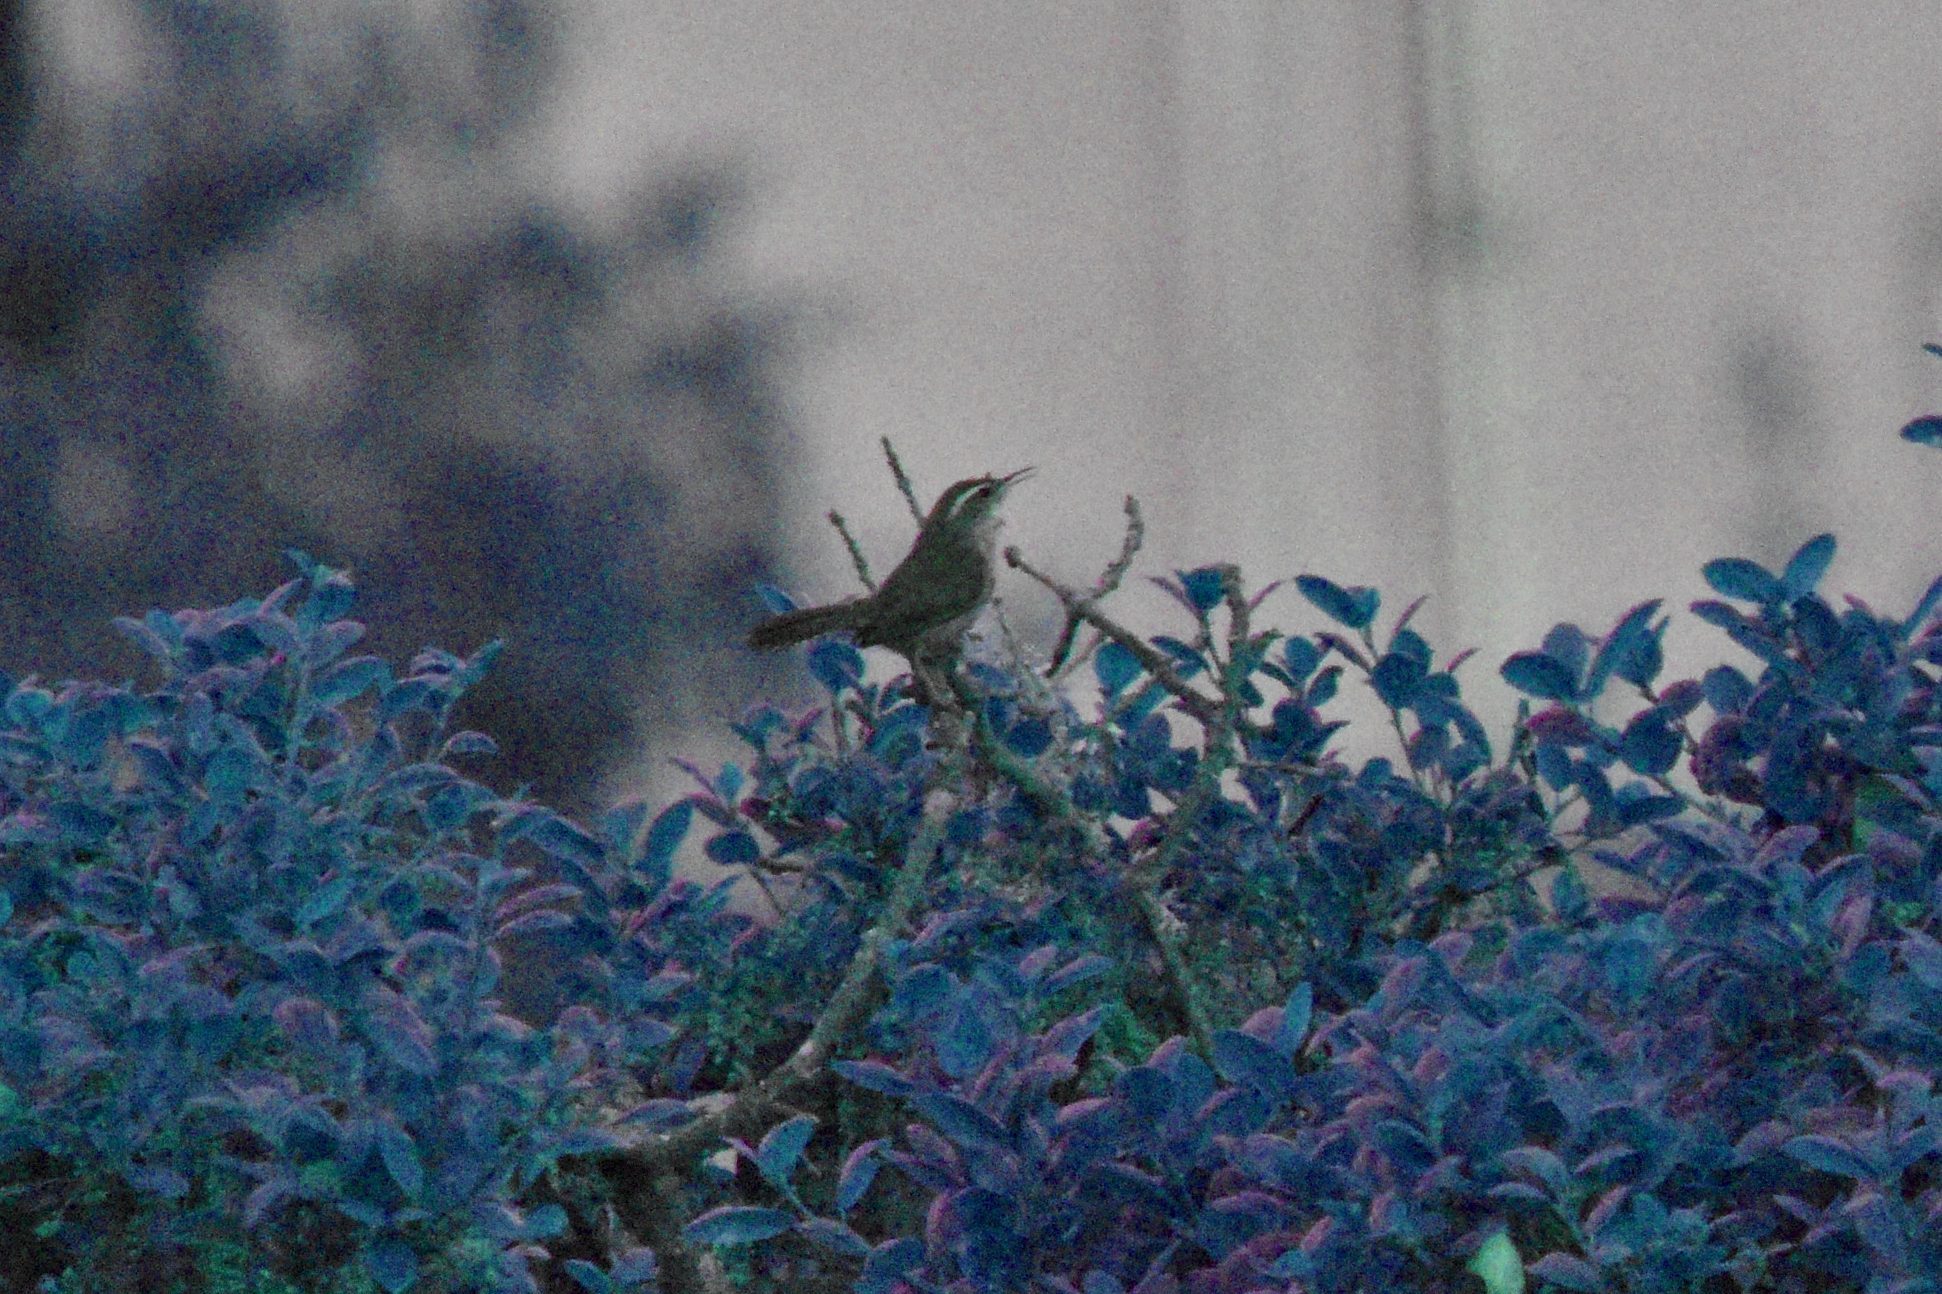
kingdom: Animalia
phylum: Chordata
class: Aves
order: Passeriformes
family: Troglodytidae
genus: Thryomanes
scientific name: Thryomanes bewickii
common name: Bewick's wren
